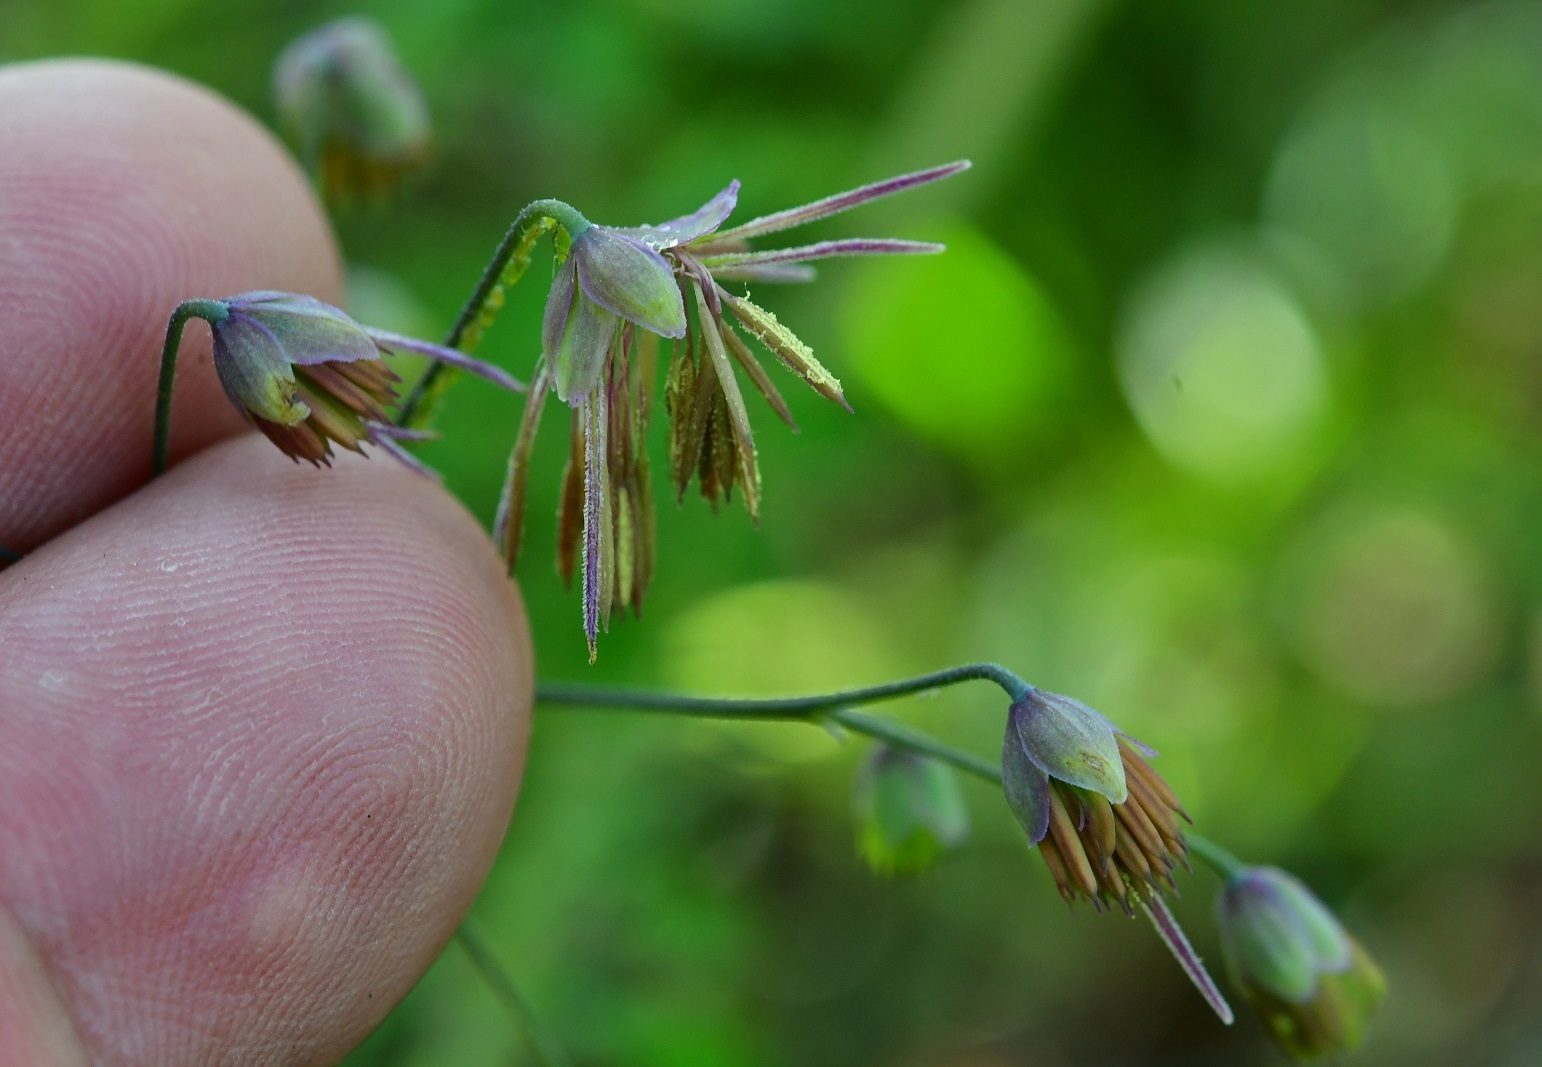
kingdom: Plantae
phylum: Tracheophyta
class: Magnoliopsida
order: Ranunculales
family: Ranunculaceae
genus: Thalictrum
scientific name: Thalictrum guatemalense
